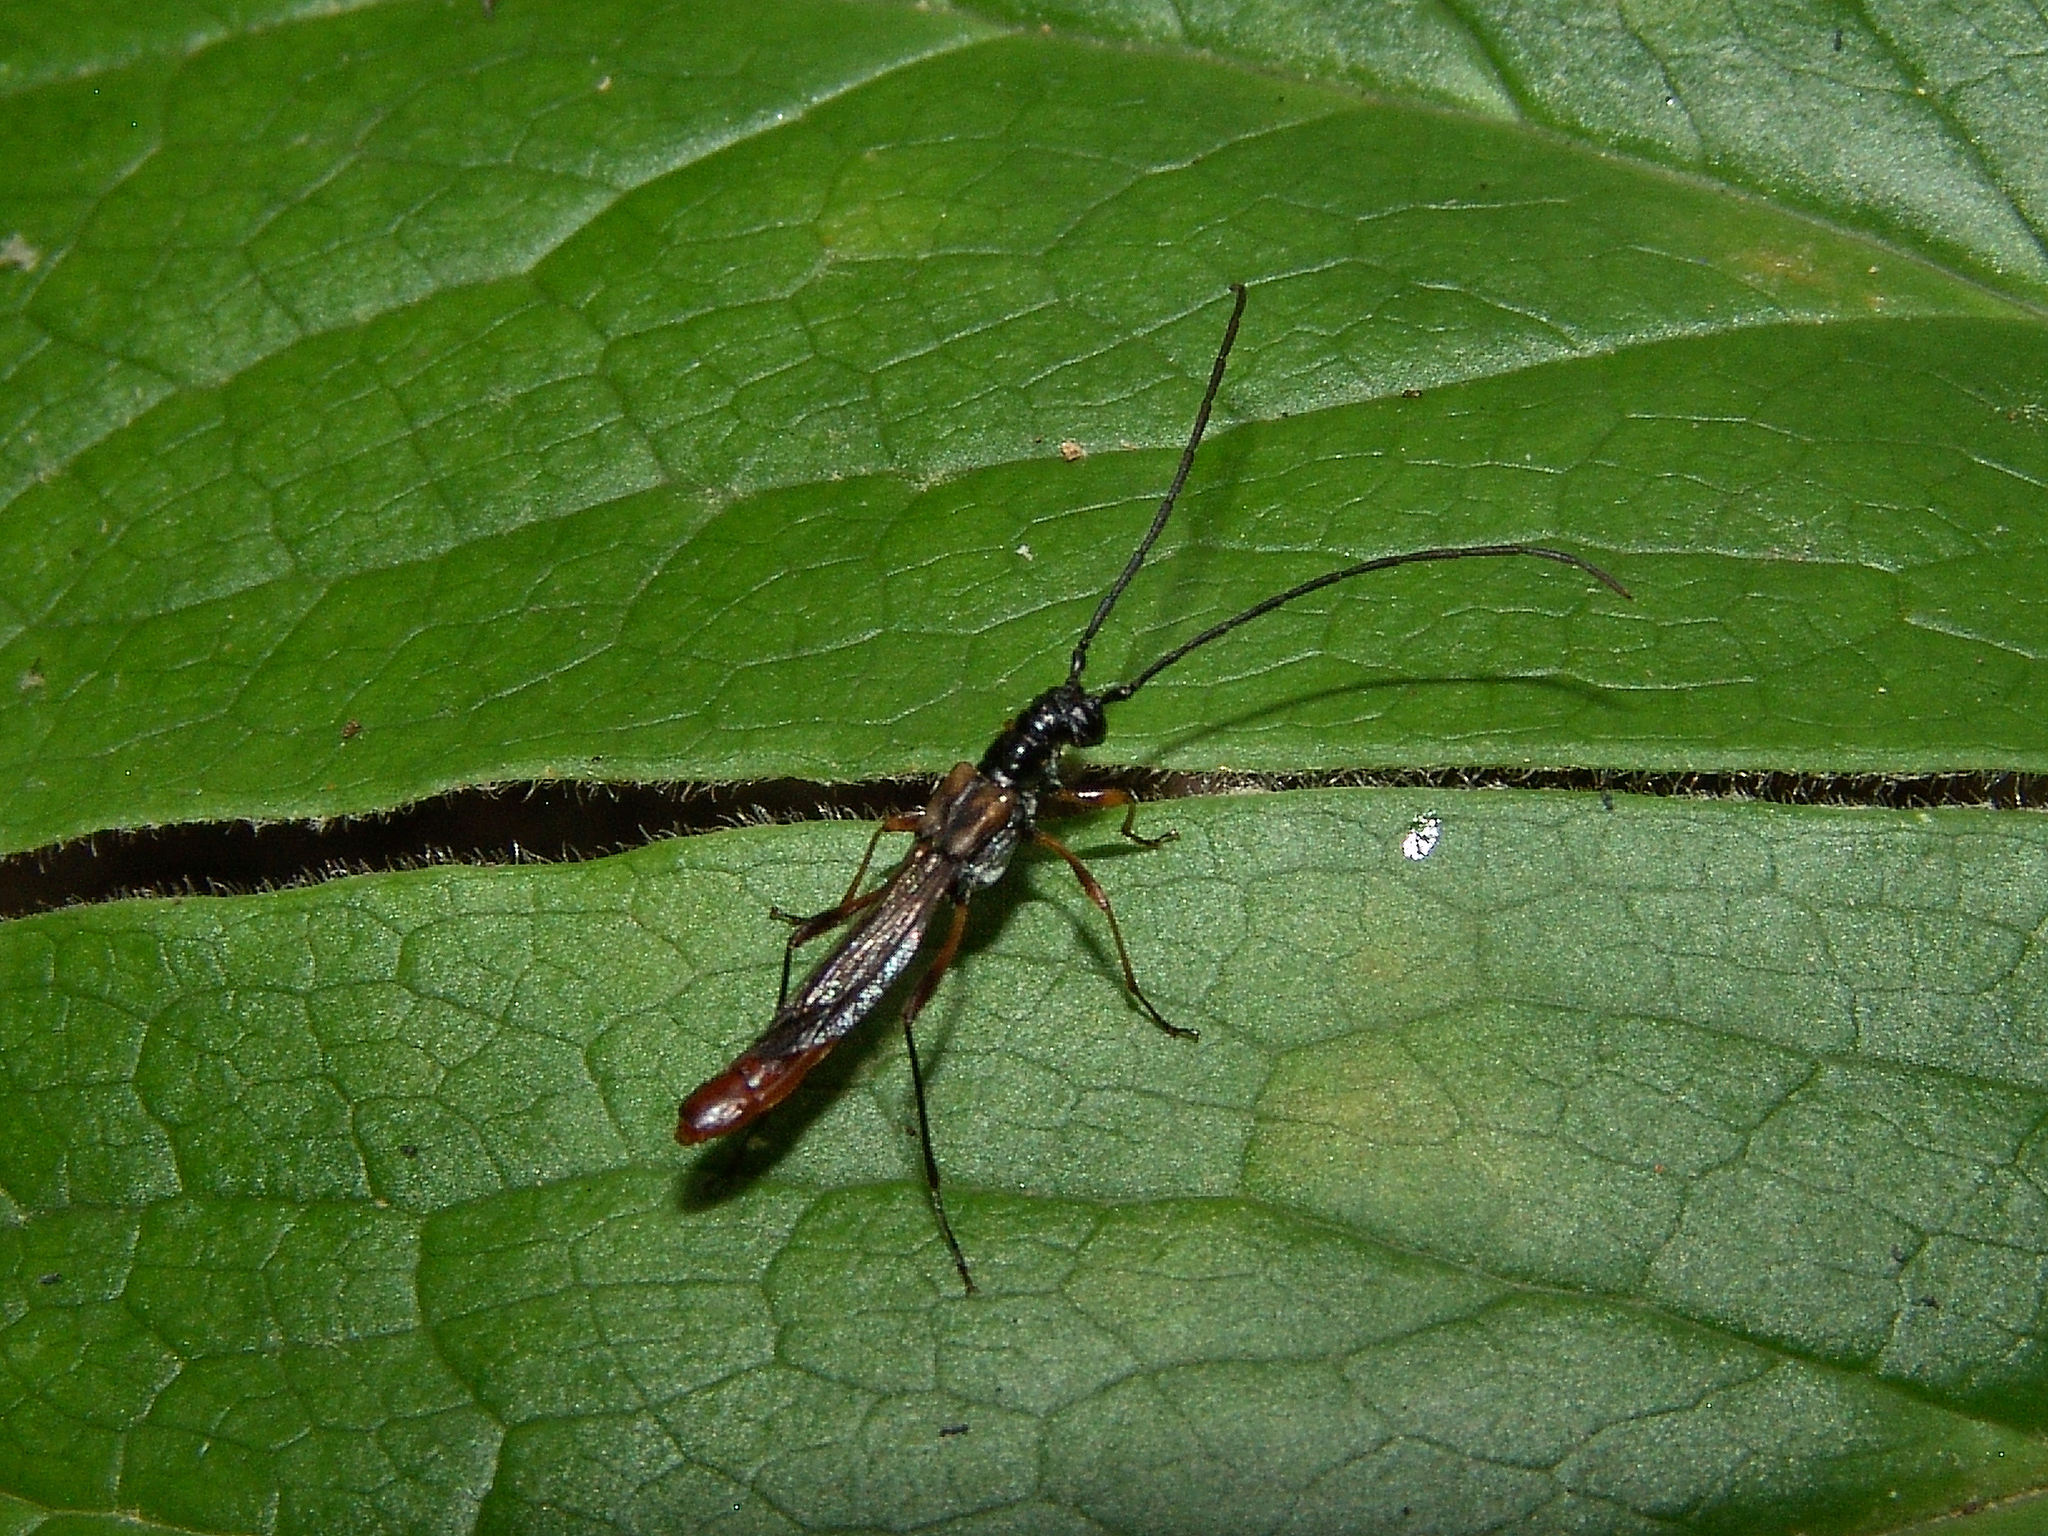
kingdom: Animalia
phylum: Arthropoda
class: Insecta
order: Coleoptera
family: Cerambycidae
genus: Necydalis
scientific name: Necydalis mellita
